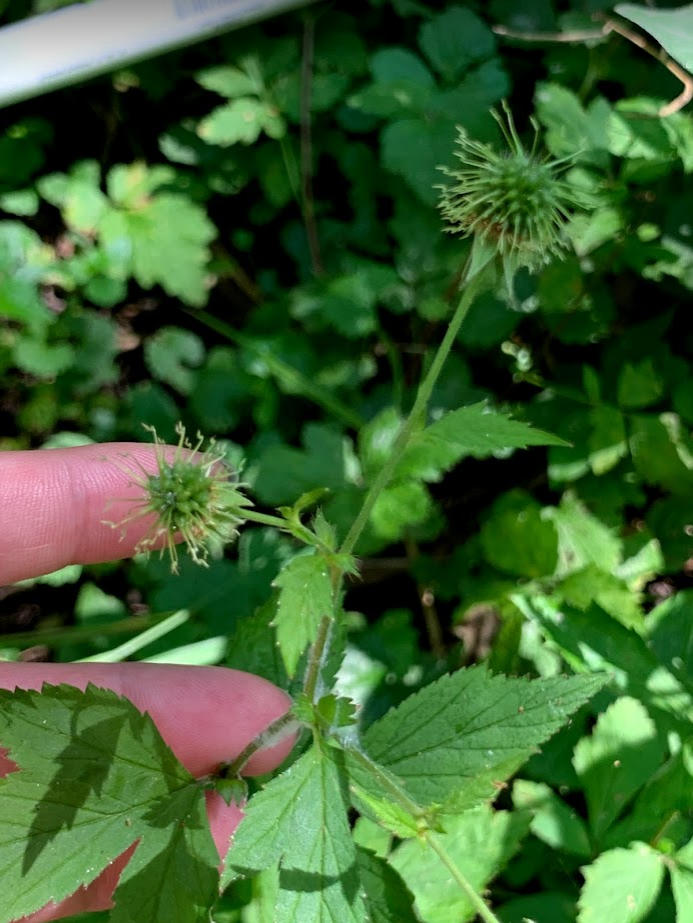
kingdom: Plantae
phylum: Tracheophyta
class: Magnoliopsida
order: Rosales
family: Rosaceae
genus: Geum
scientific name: Geum canadense
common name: White avens
